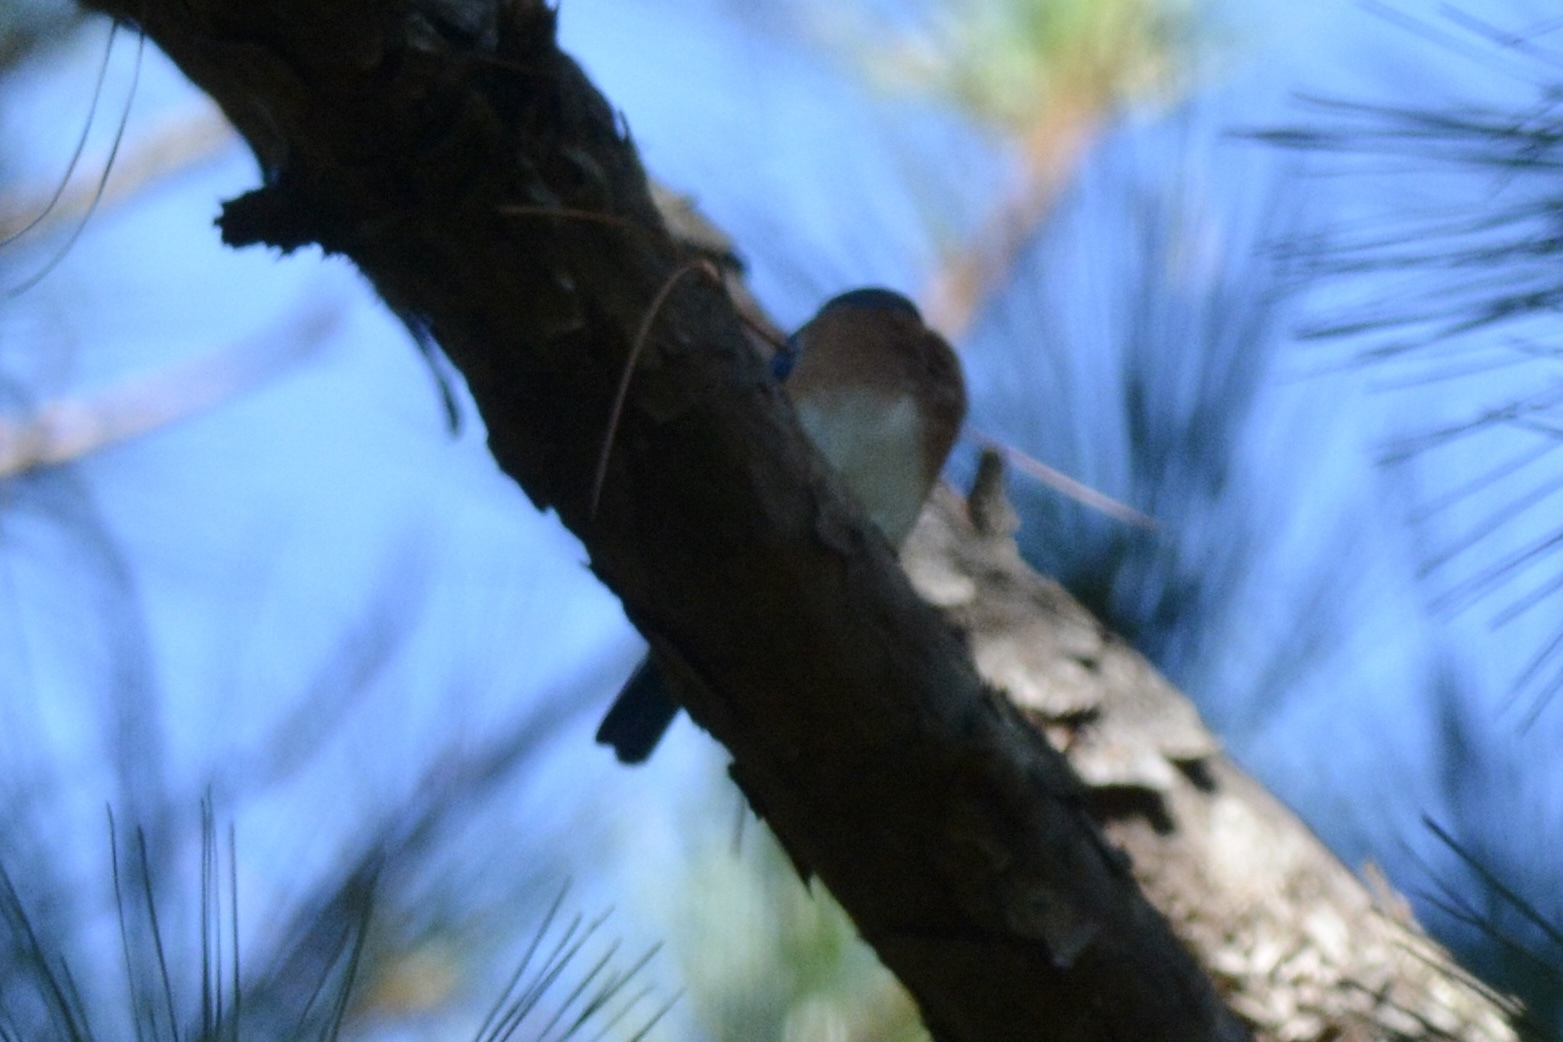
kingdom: Animalia
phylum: Chordata
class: Aves
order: Passeriformes
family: Turdidae
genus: Sialia
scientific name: Sialia sialis
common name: Eastern bluebird
